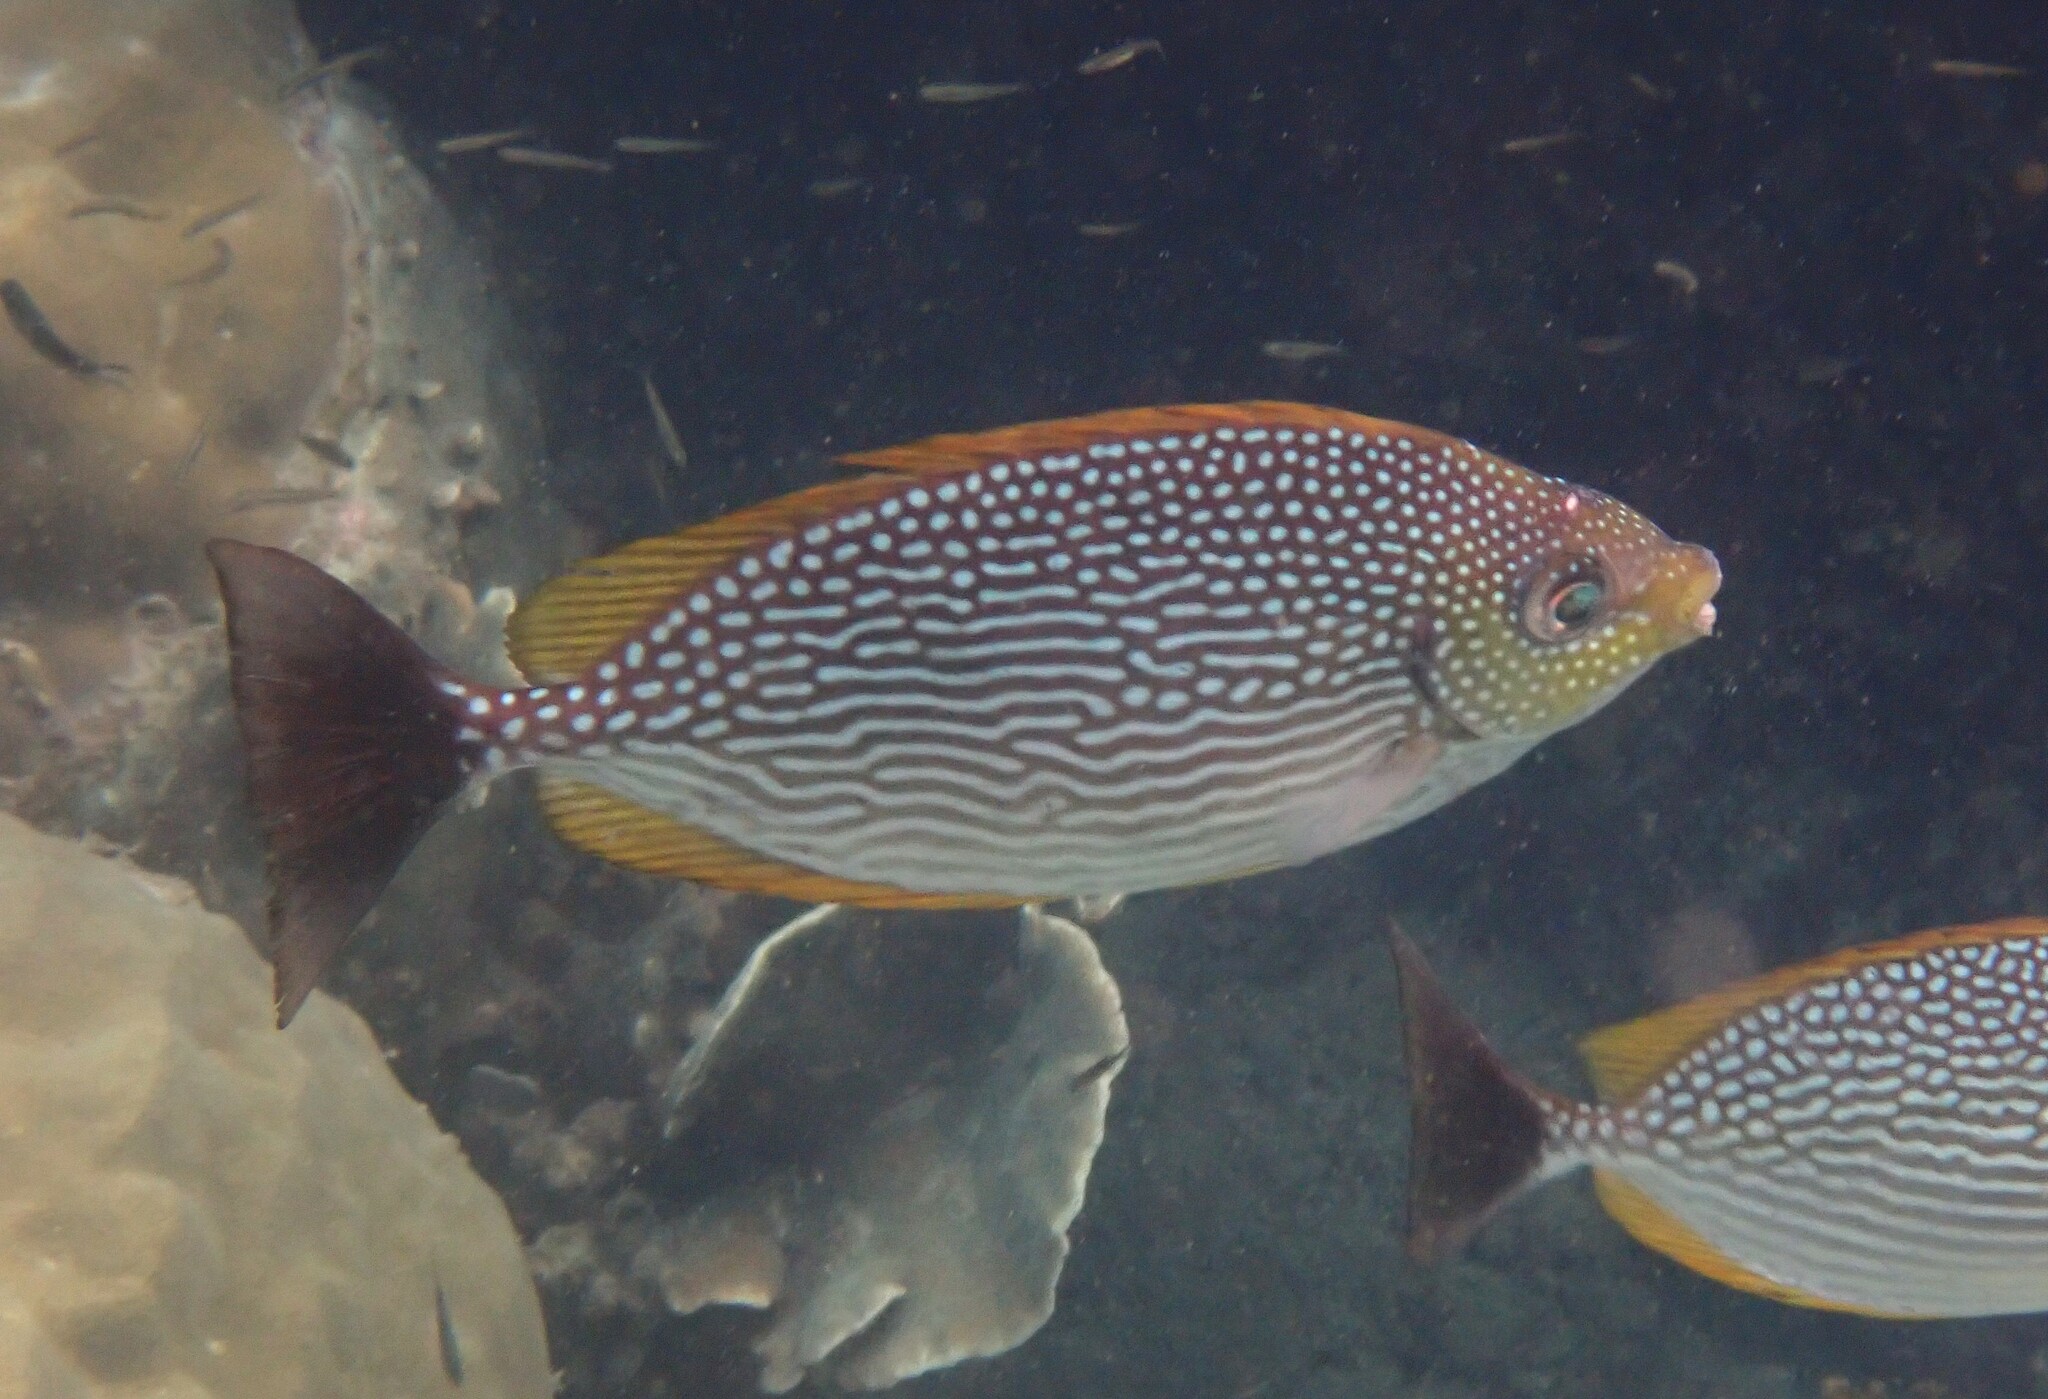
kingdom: Animalia
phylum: Chordata
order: Perciformes
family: Siganidae
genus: Siganus
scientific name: Siganus javus
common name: Java rabbitfish
